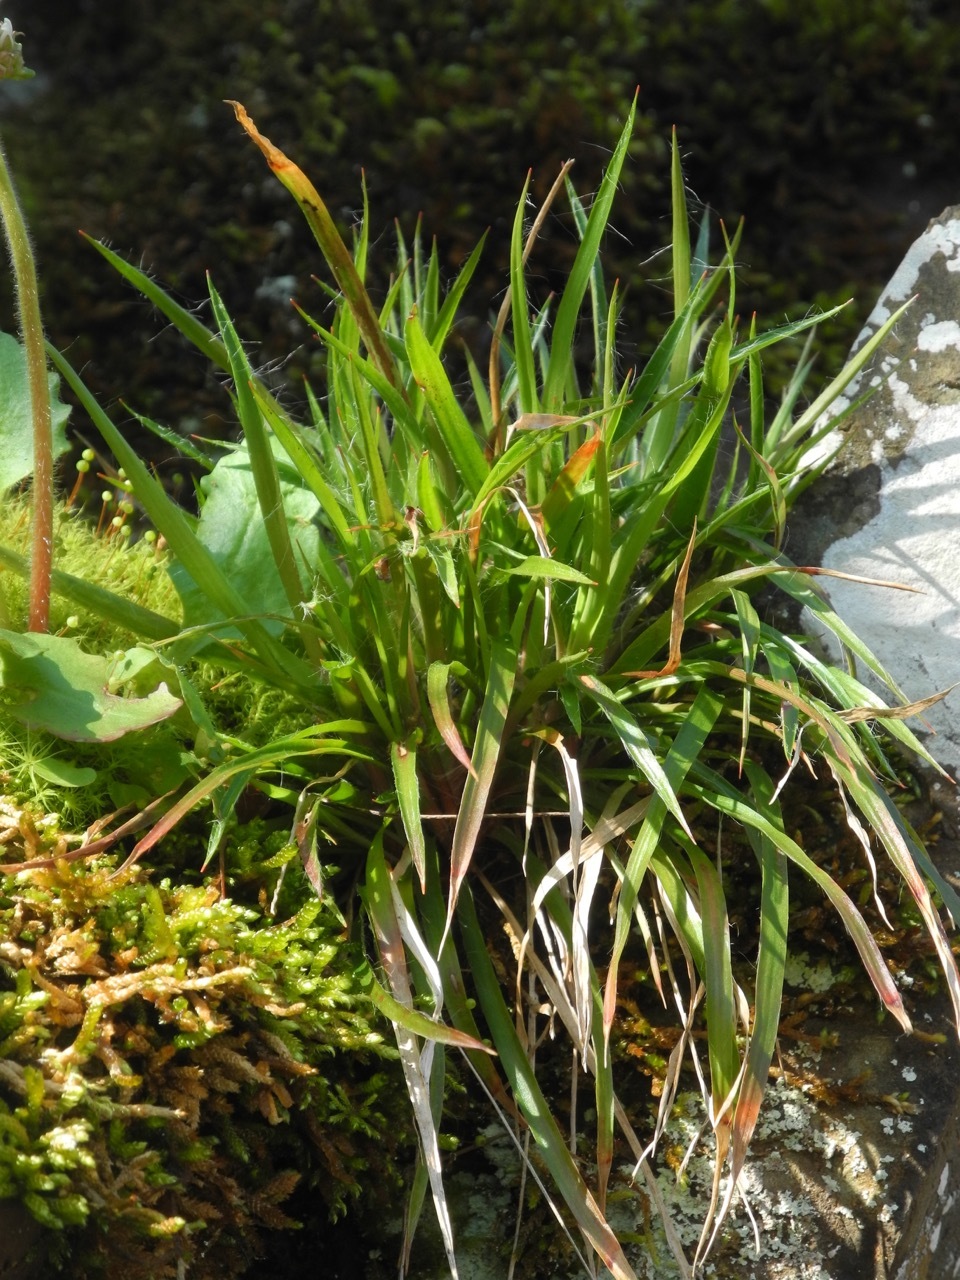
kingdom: Plantae
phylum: Tracheophyta
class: Liliopsida
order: Poales
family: Juncaceae
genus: Luzula
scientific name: Luzula echinata
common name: Hedgehog woodrush
